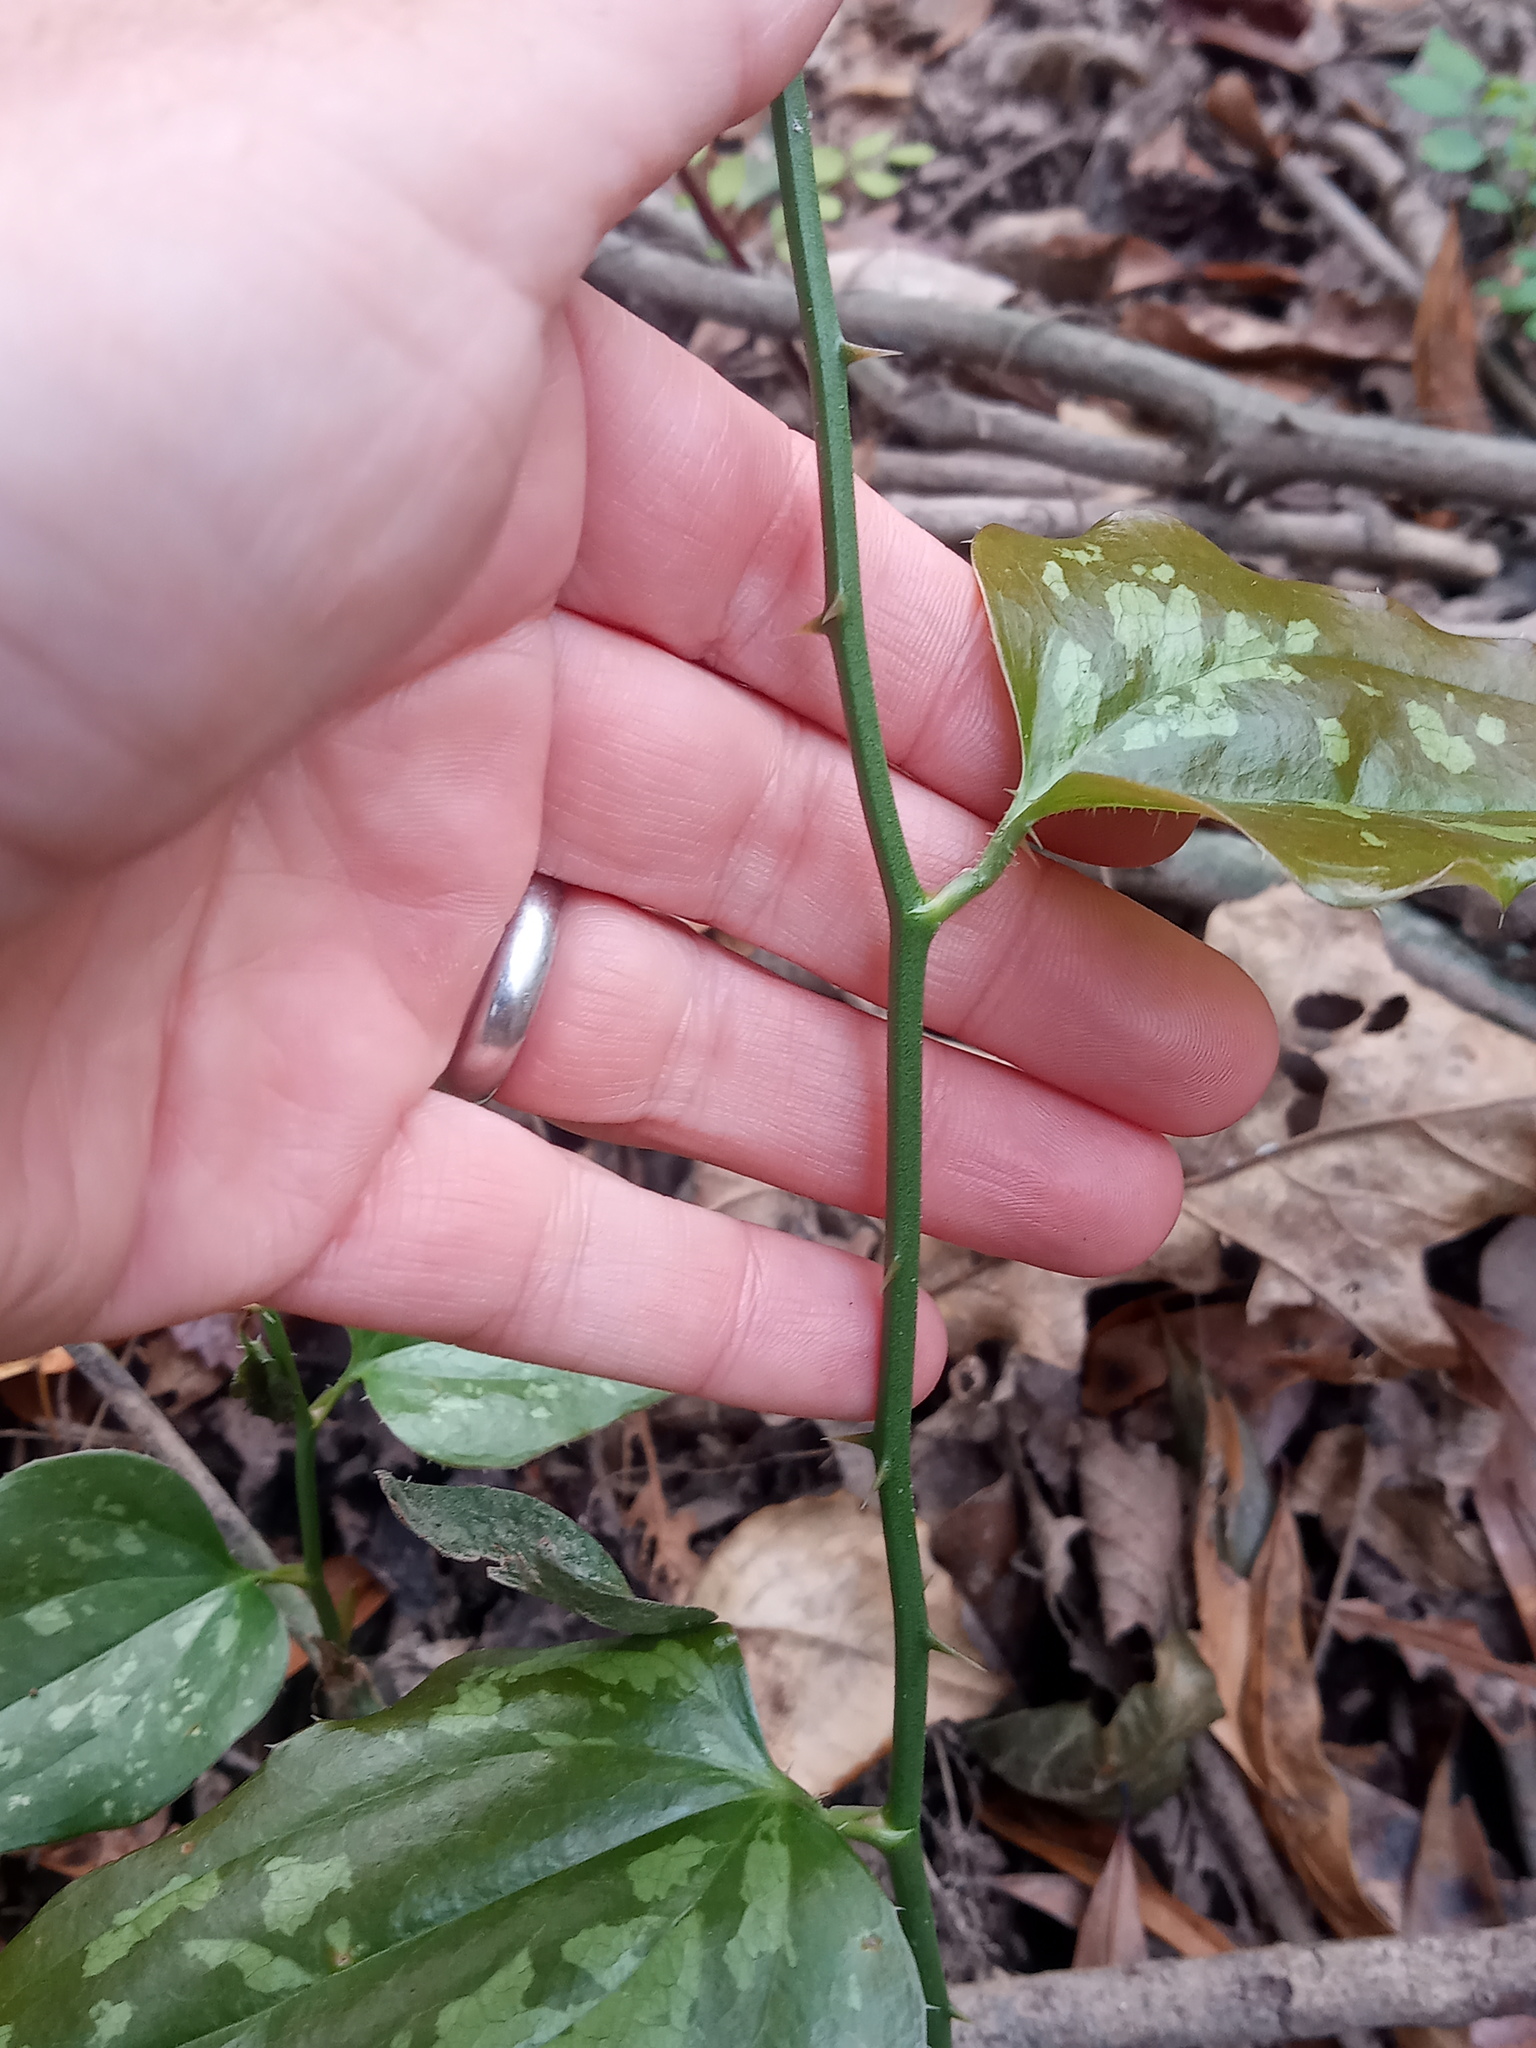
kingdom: Plantae
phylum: Tracheophyta
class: Liliopsida
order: Liliales
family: Smilacaceae
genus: Smilax
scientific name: Smilax bona-nox
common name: Catbrier
